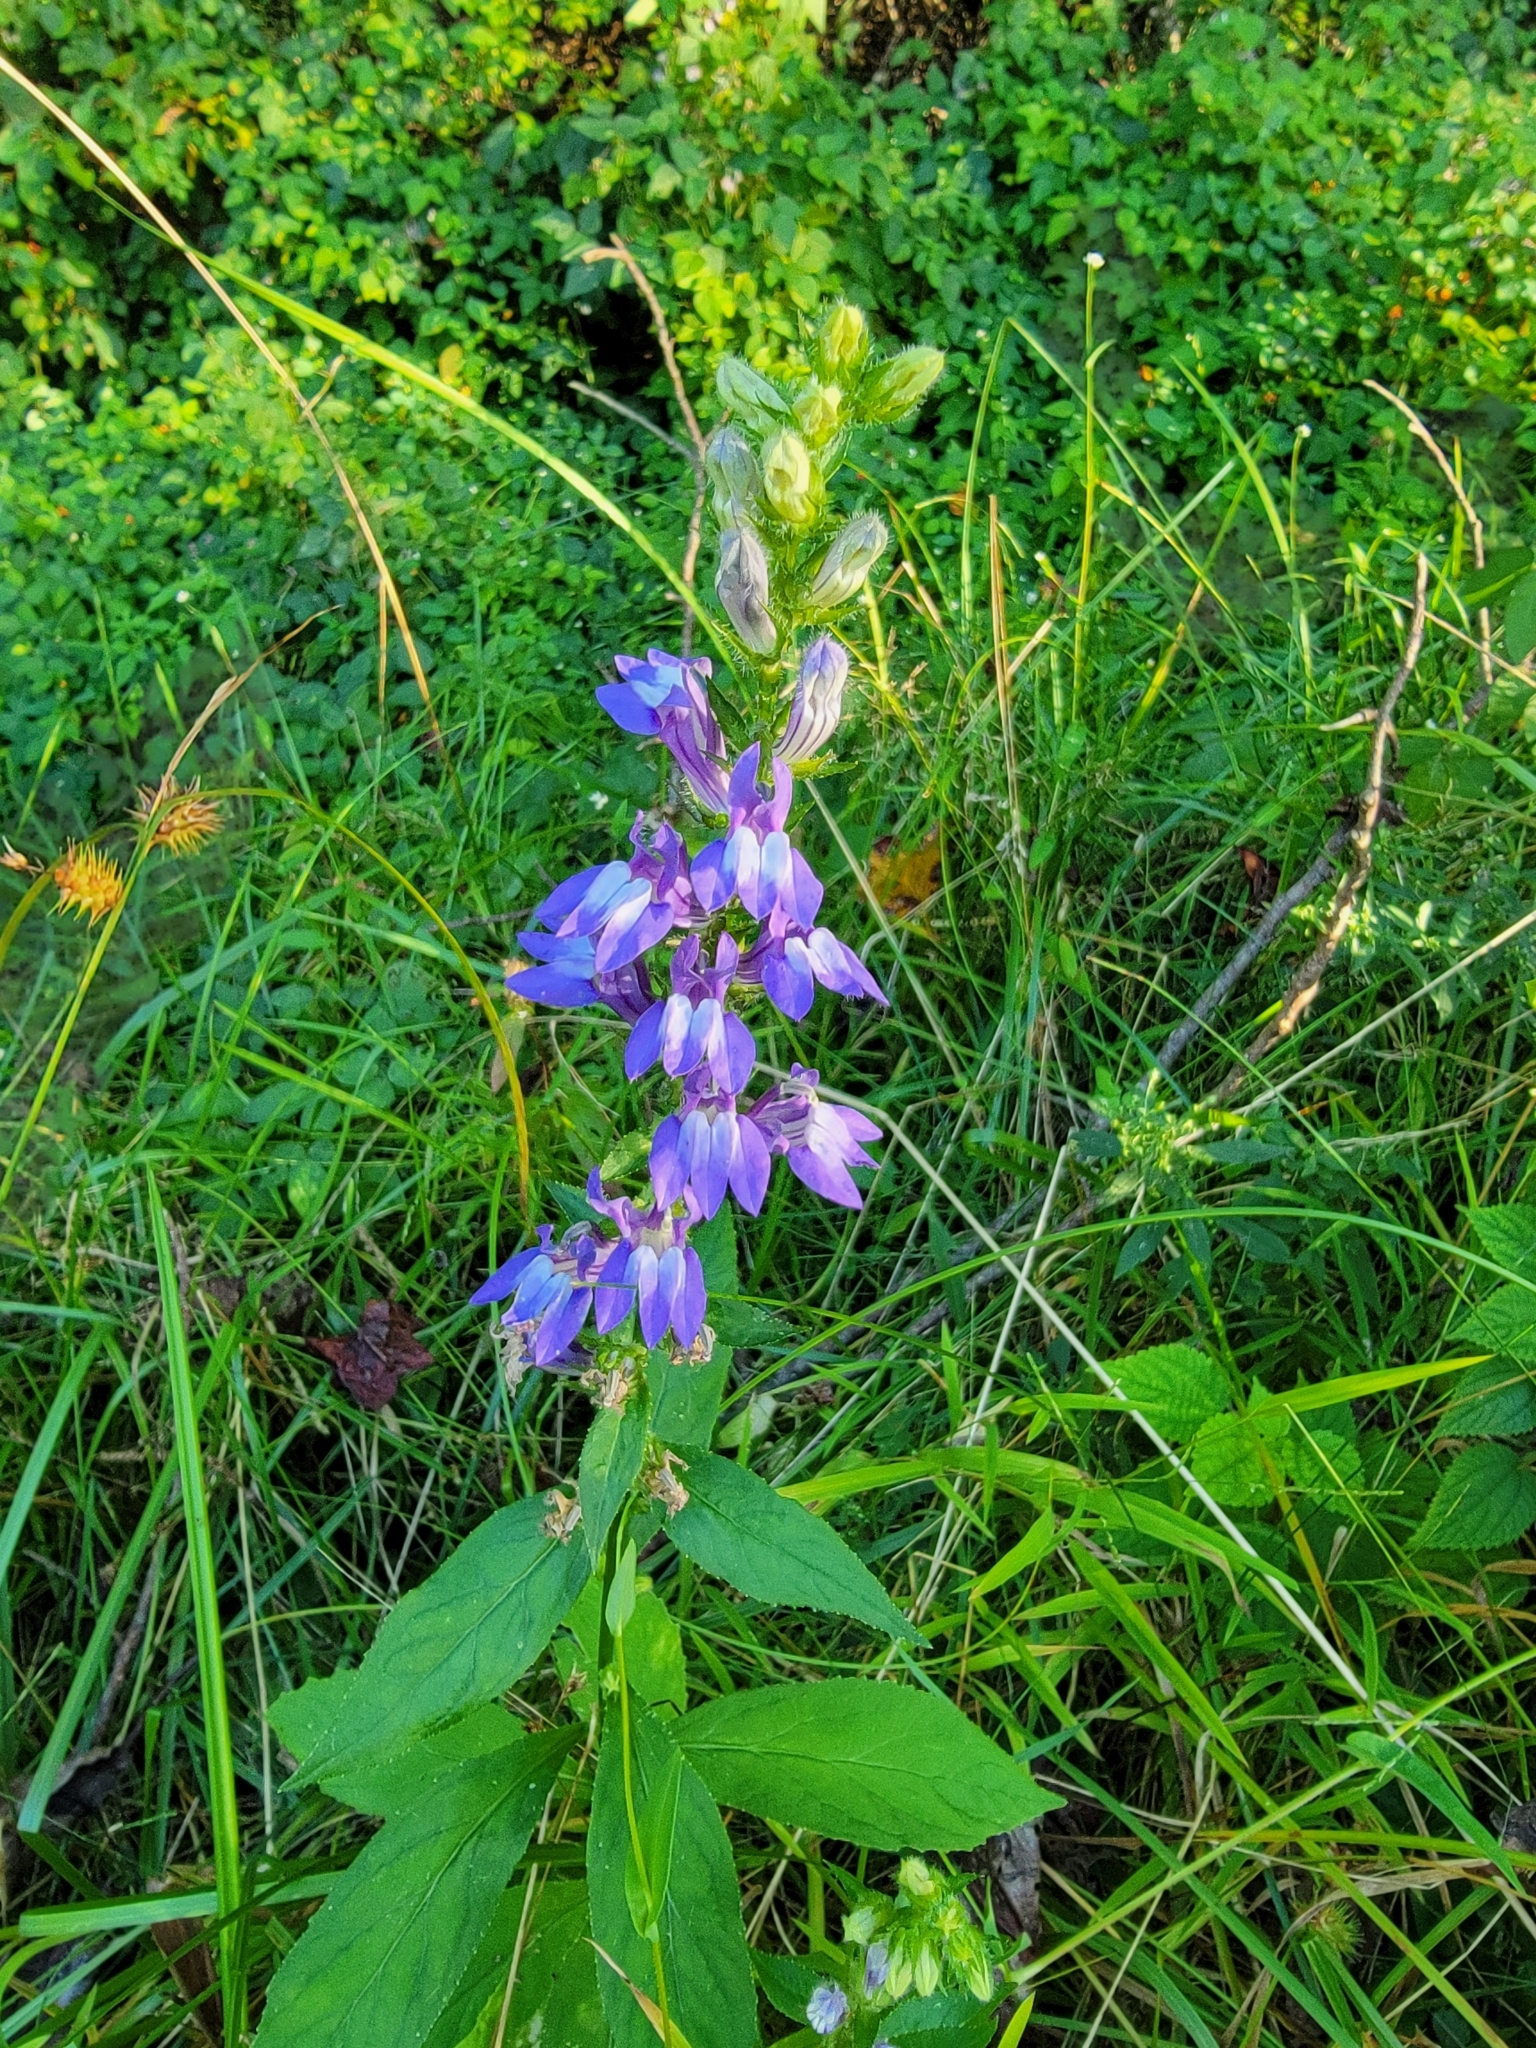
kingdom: Plantae
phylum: Tracheophyta
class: Magnoliopsida
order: Asterales
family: Campanulaceae
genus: Lobelia
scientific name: Lobelia siphilitica
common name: Great lobelia
